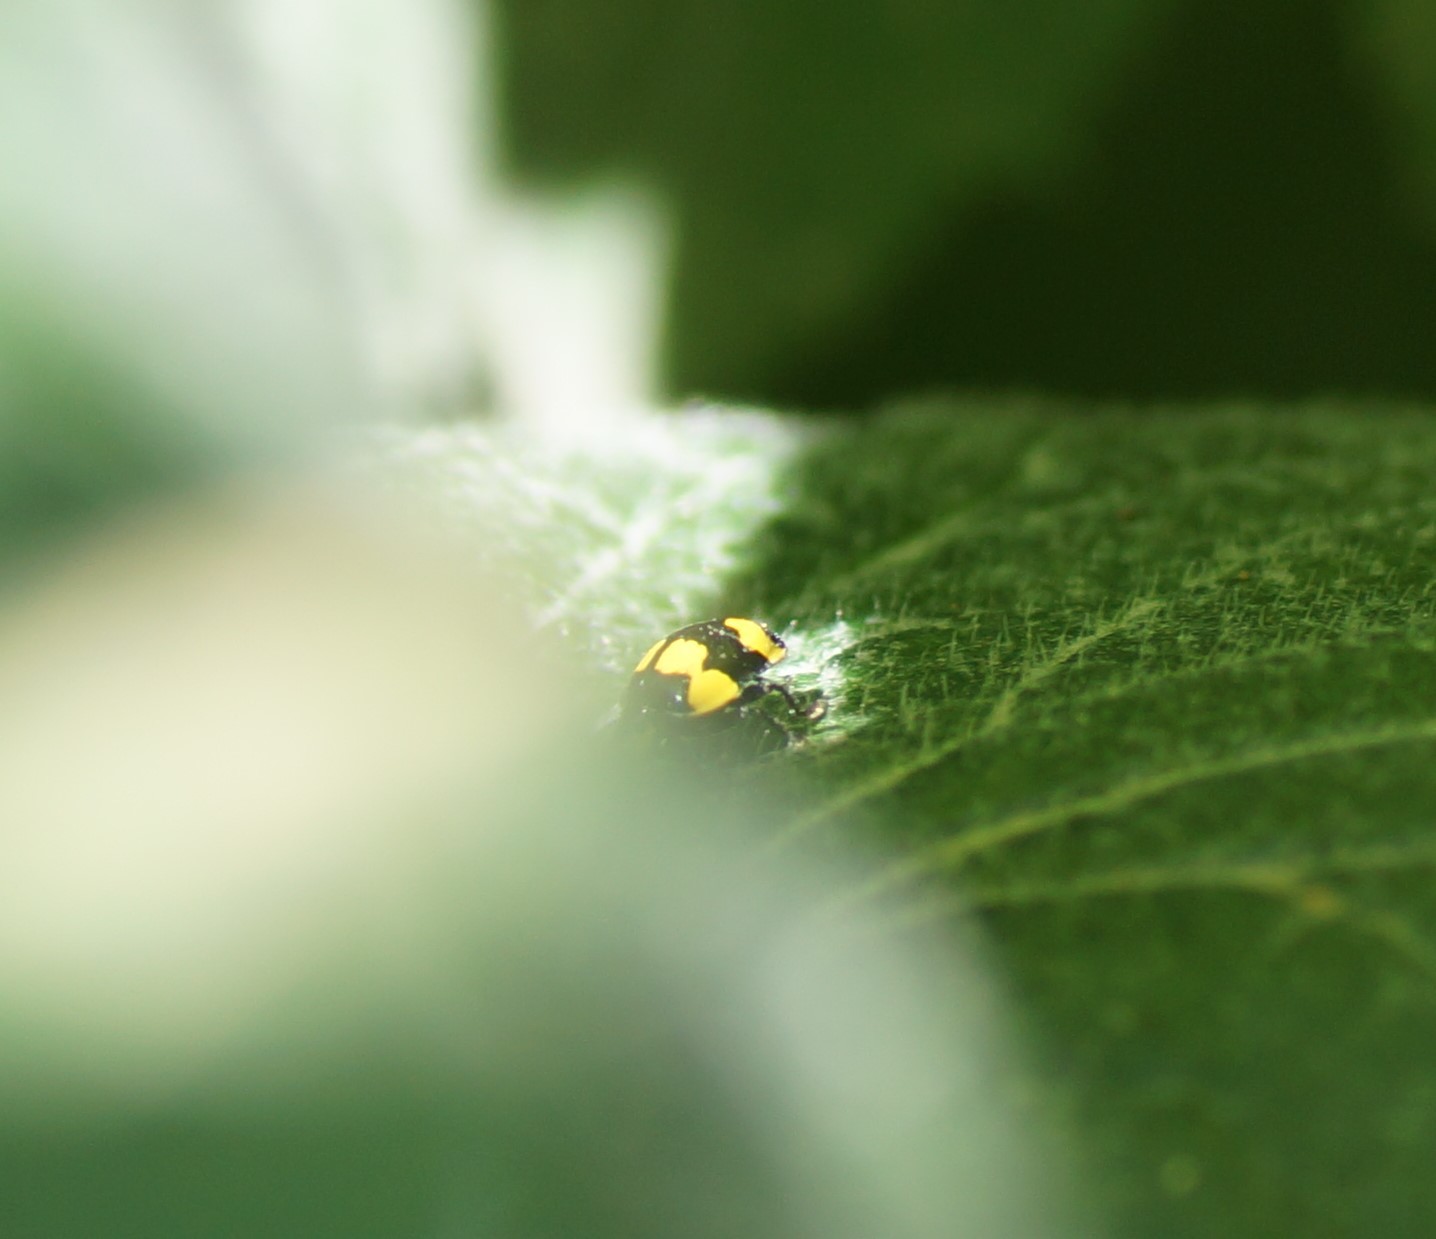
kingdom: Animalia
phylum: Arthropoda
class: Insecta
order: Coleoptera
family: Coccinellidae
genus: Illeis
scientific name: Illeis galbula
